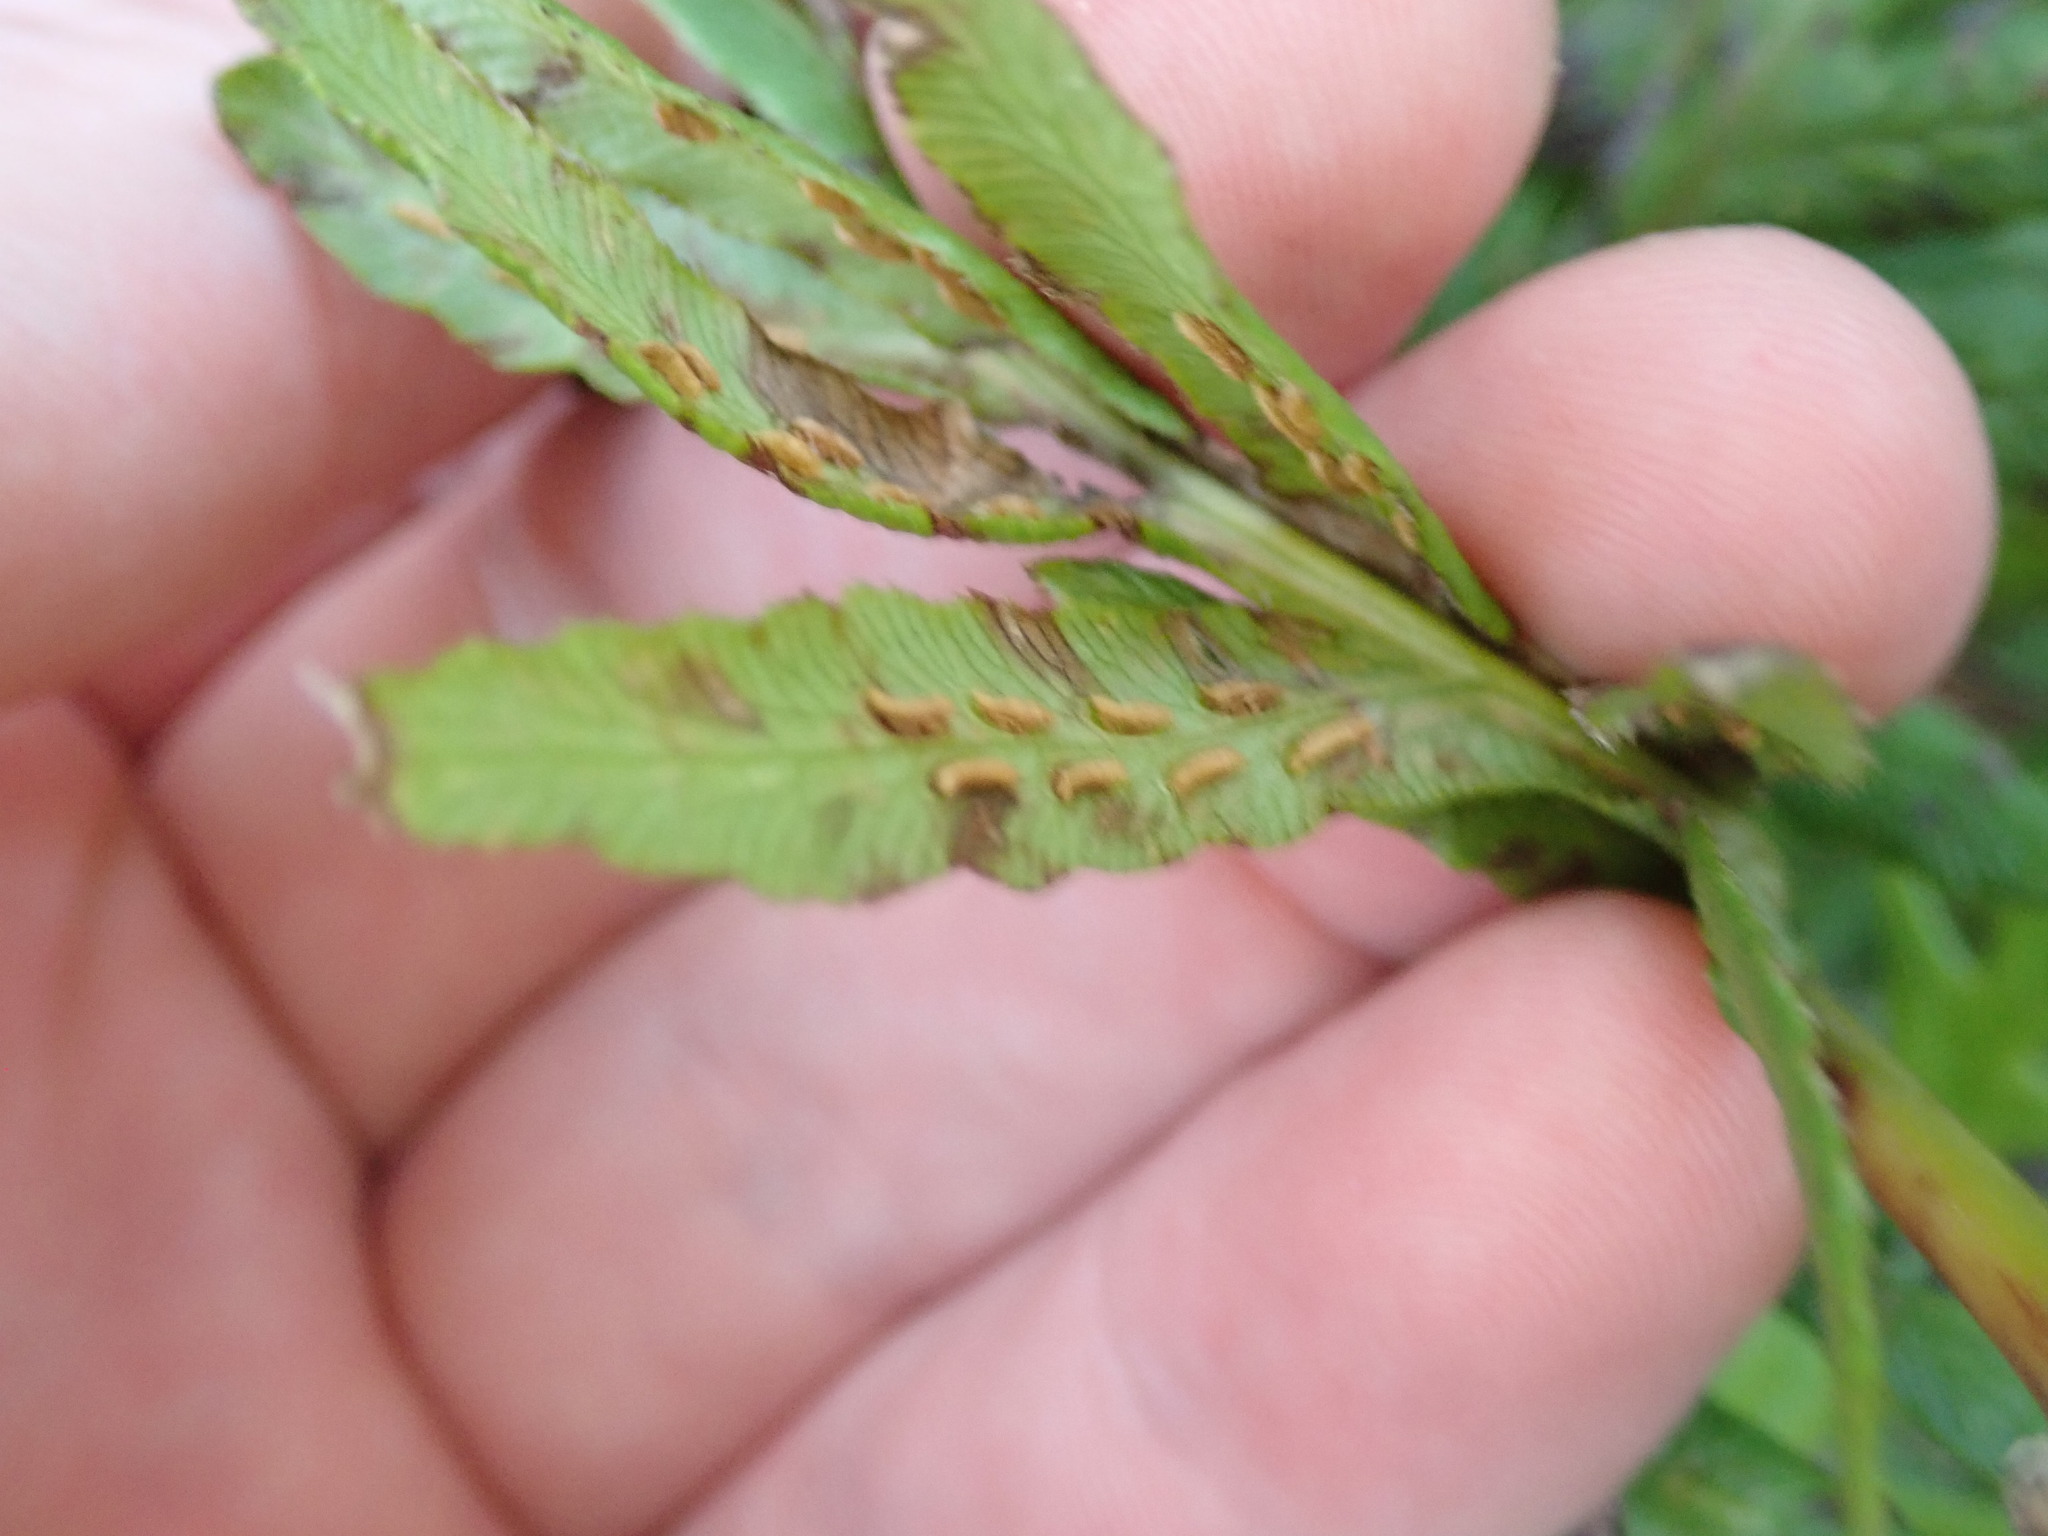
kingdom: Plantae
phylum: Tracheophyta
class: Polypodiopsida
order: Polypodiales
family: Blechnaceae
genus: Woodwardia
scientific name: Woodwardia fimbriata
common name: Giant chain fern
